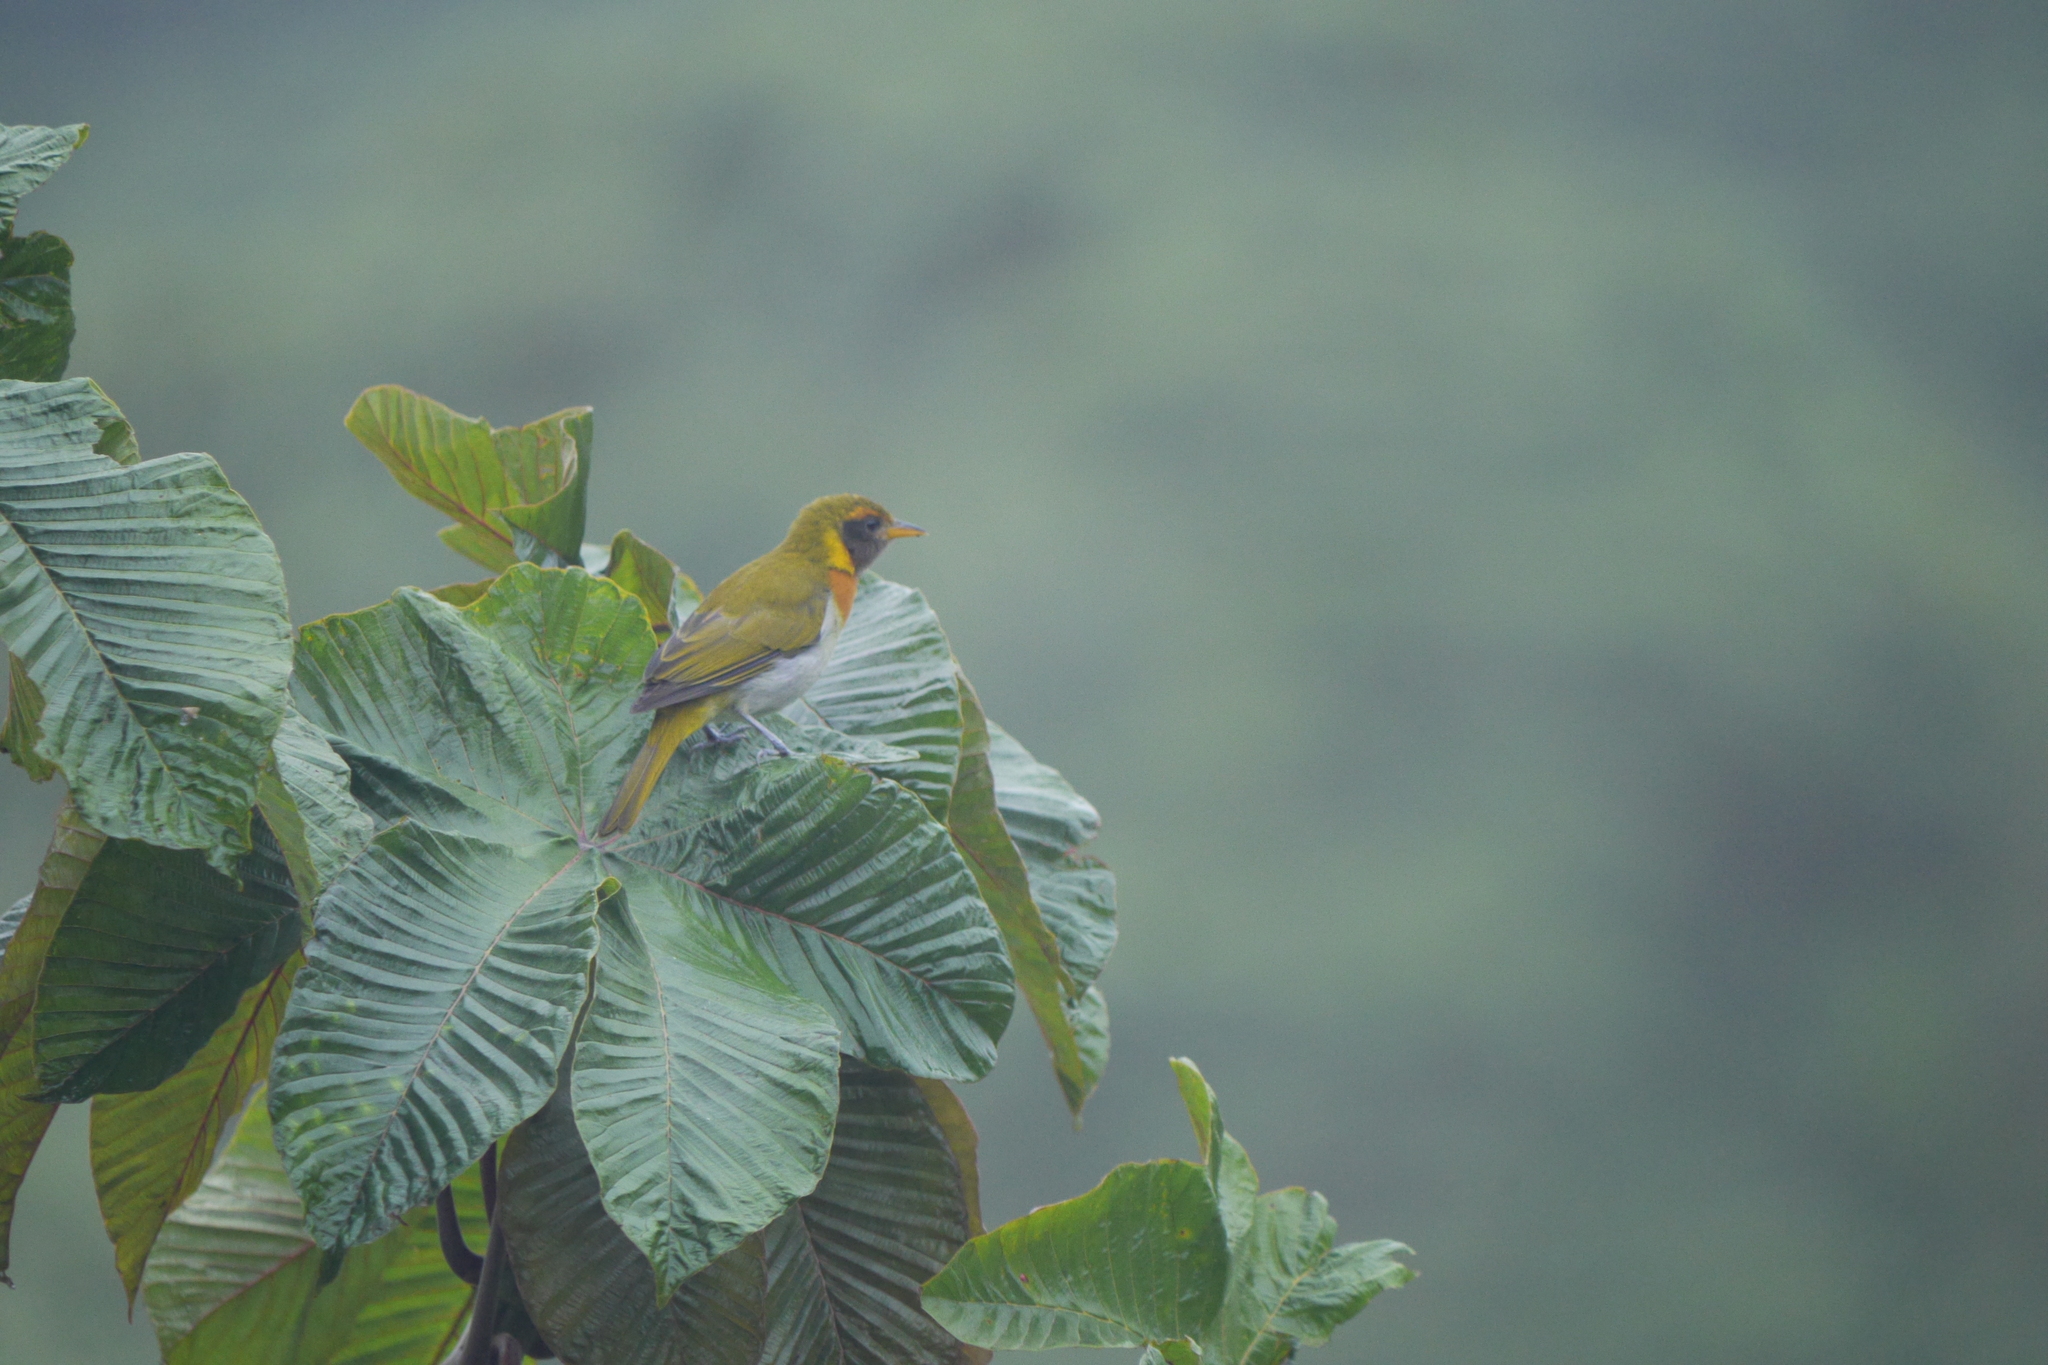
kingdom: Animalia
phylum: Chordata
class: Aves
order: Passeriformes
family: Thraupidae
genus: Hemithraupis
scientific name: Hemithraupis guira
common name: Guira tanager
